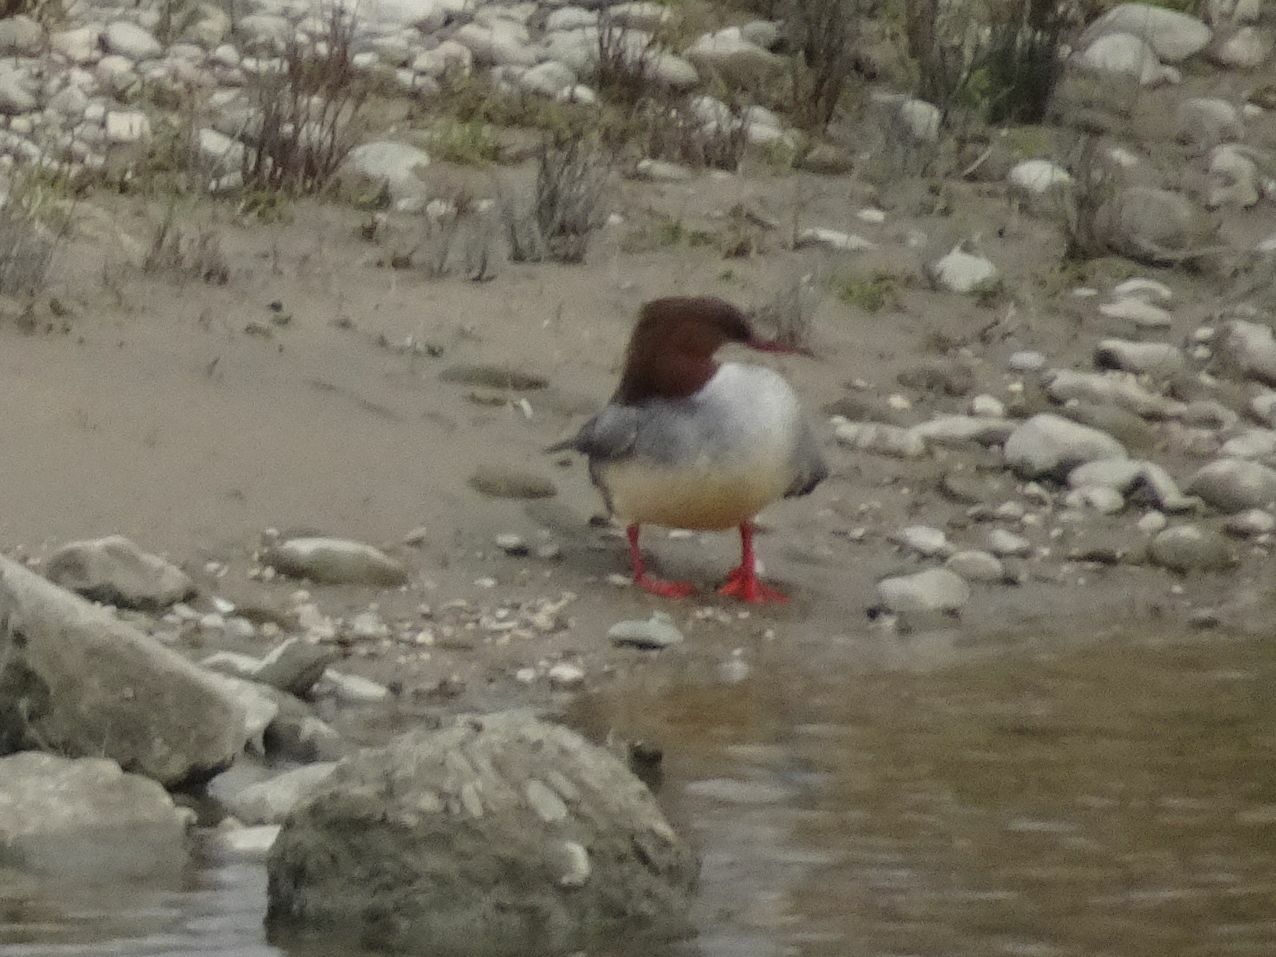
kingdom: Animalia
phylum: Chordata
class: Aves
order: Anseriformes
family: Anatidae
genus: Mergus
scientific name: Mergus merganser
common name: Common merganser
